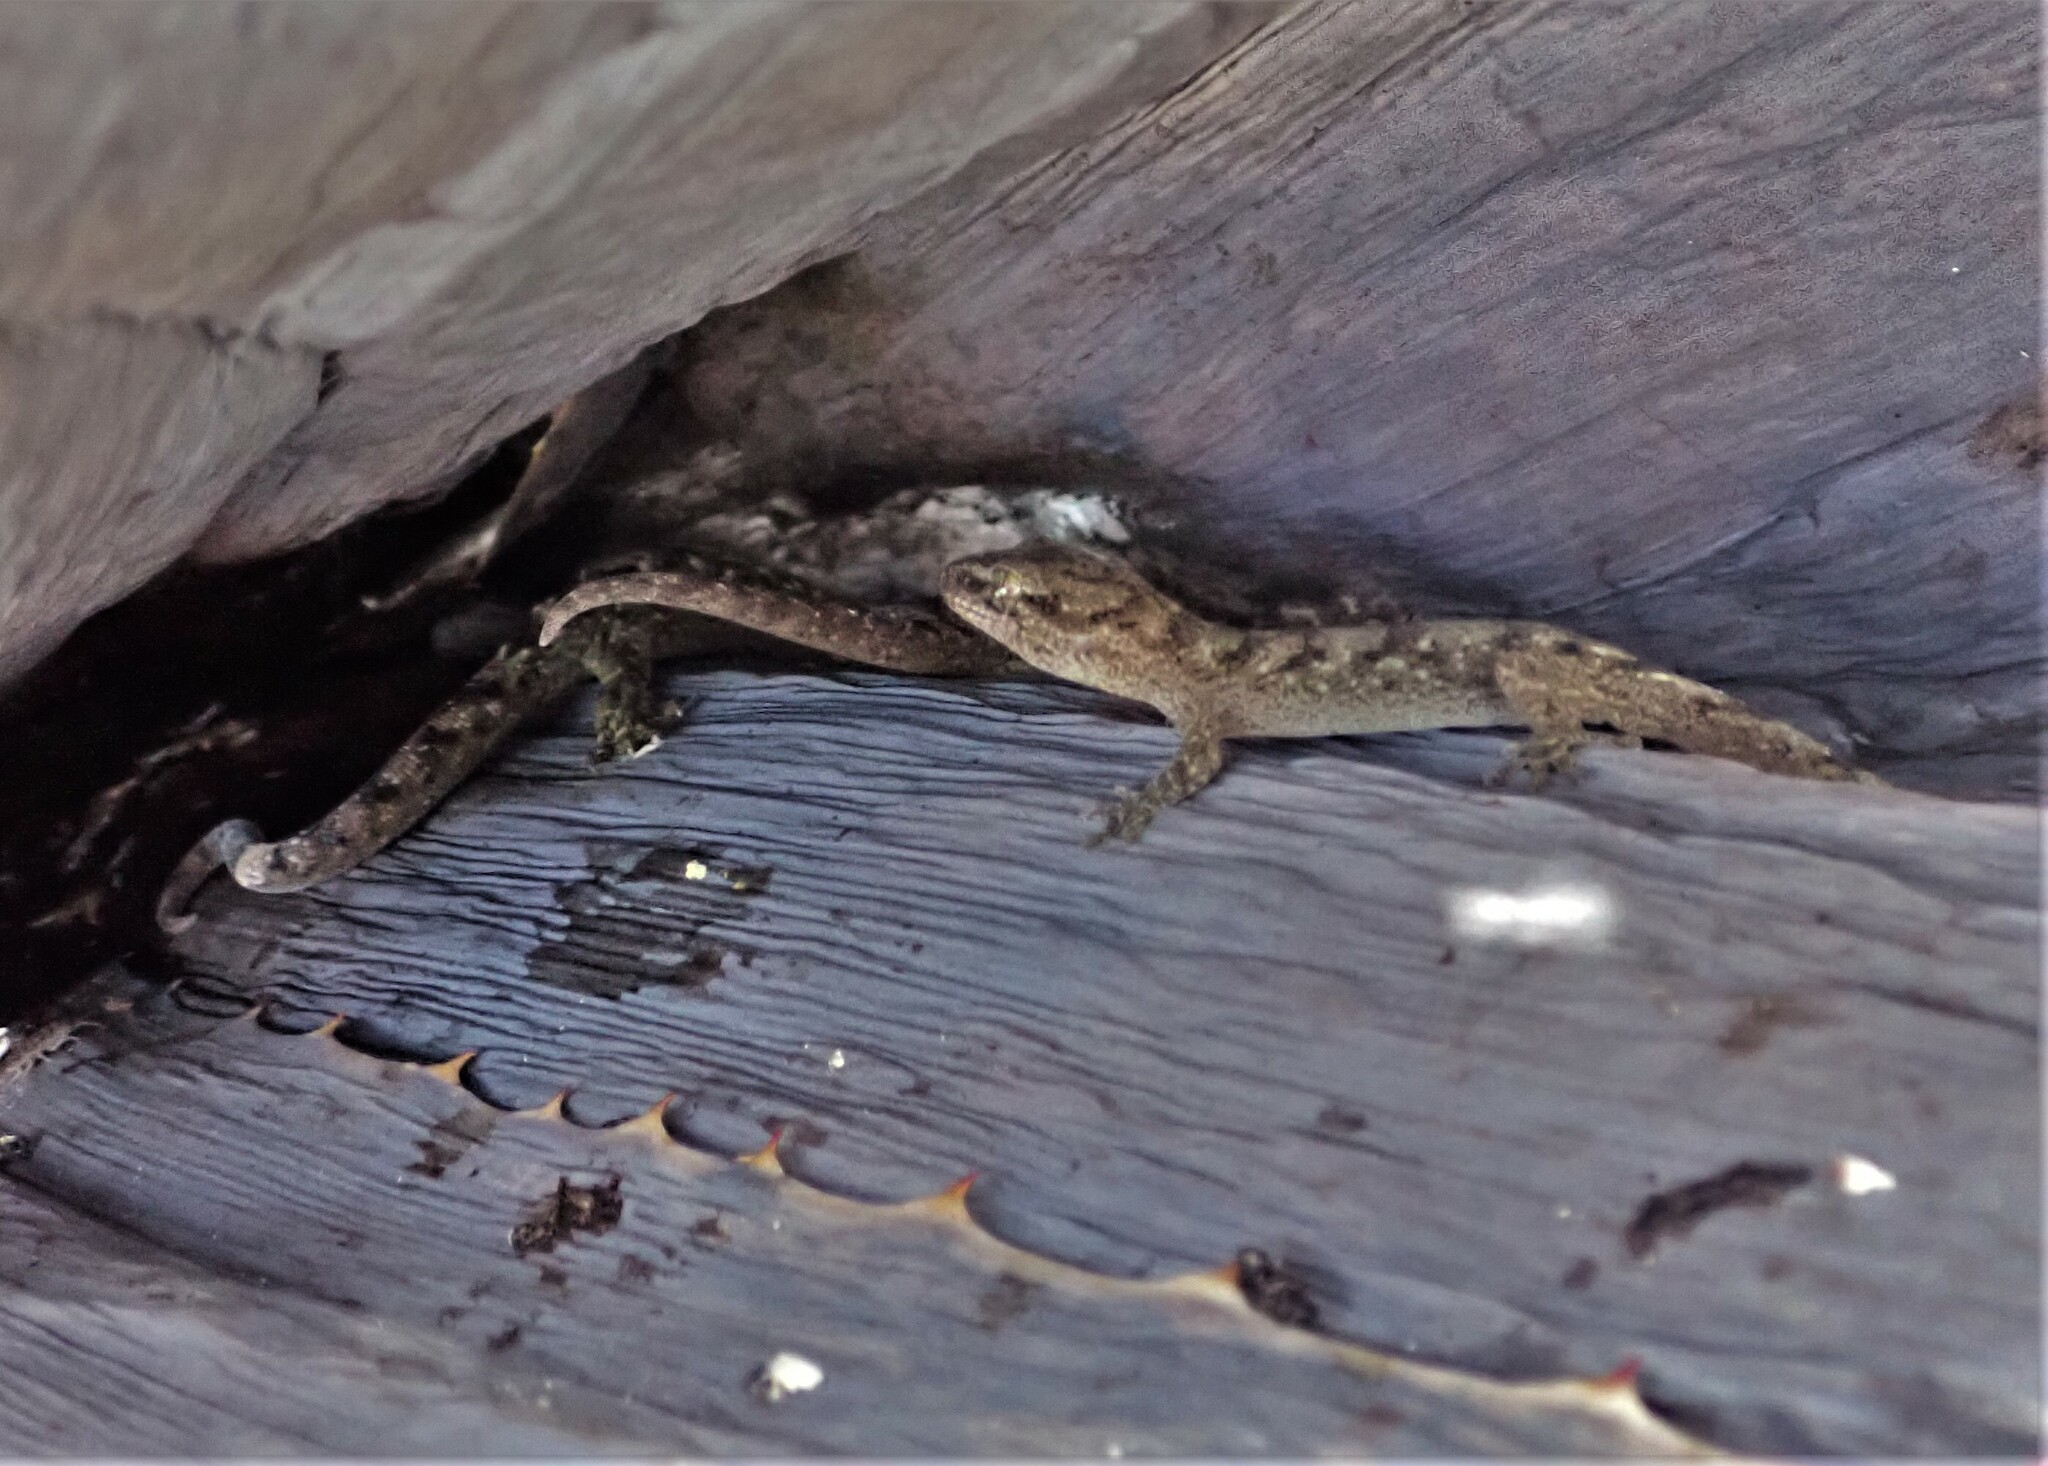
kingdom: Animalia
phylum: Chordata
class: Squamata
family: Diplodactylidae
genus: Woodworthia
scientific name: Woodworthia brunnea
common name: Canterbury gecko
